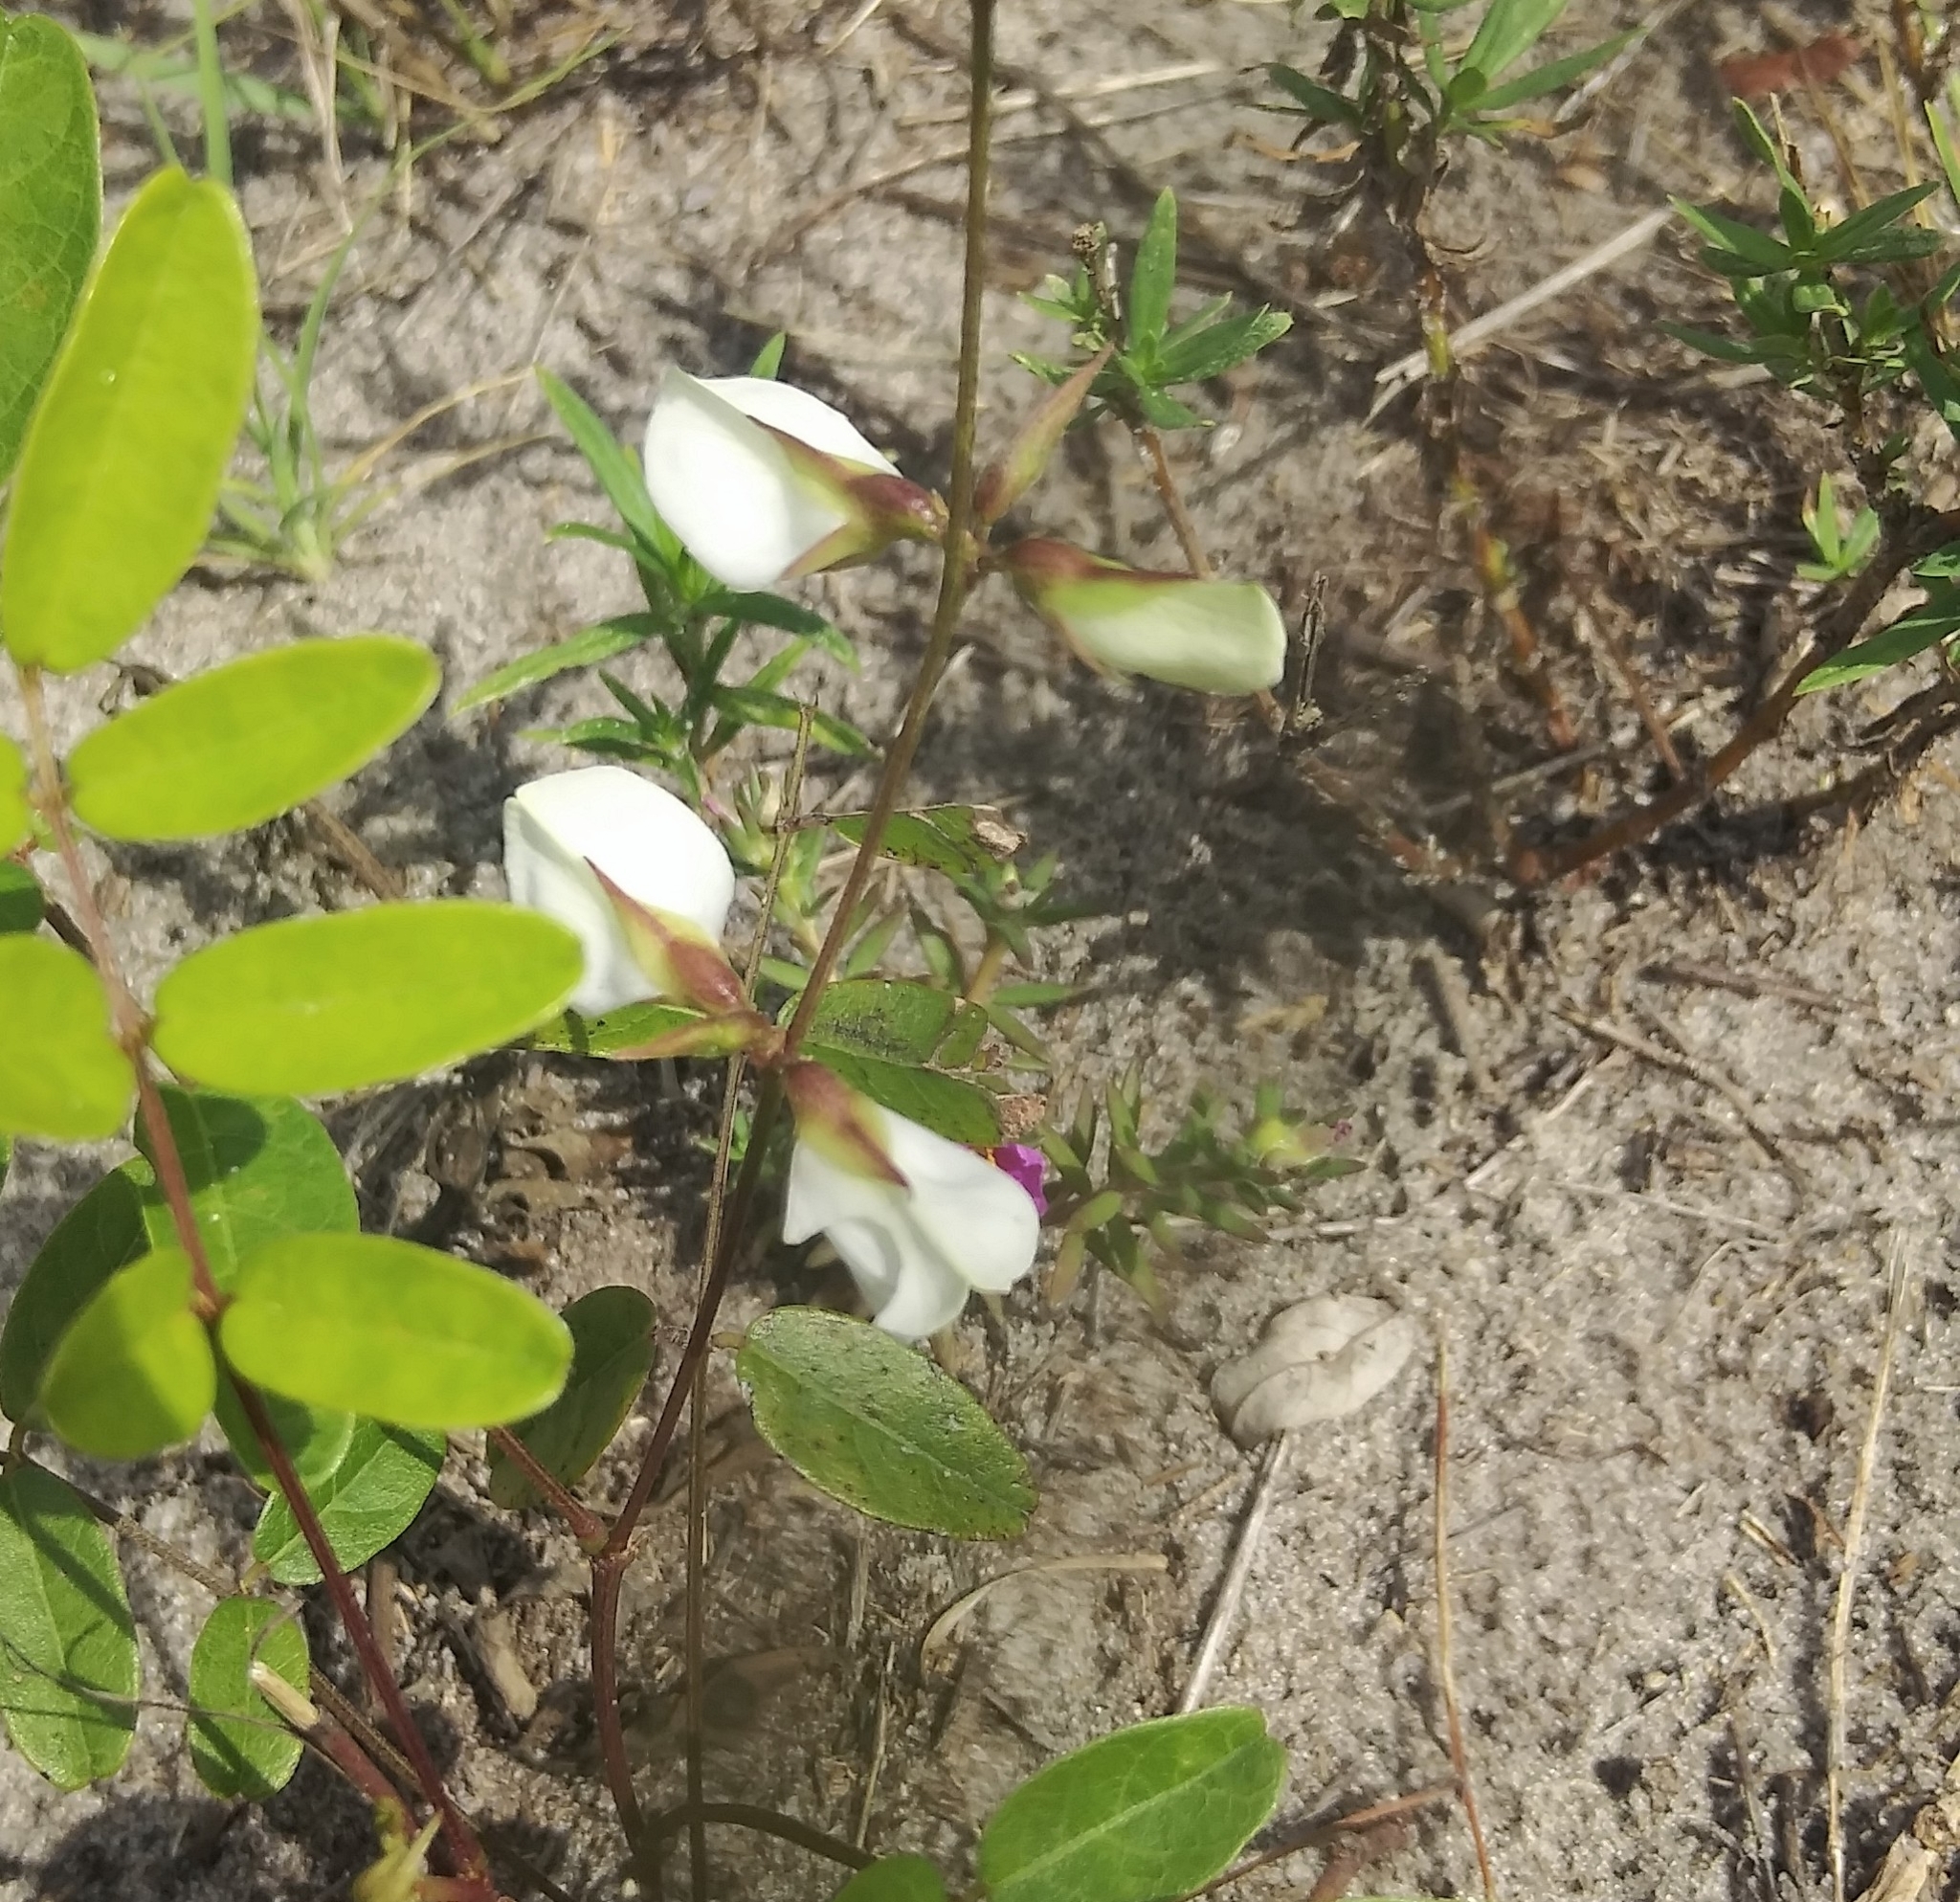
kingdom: Plantae
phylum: Tracheophyta
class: Magnoliopsida
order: Fabales
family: Fabaceae
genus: Galactia
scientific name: Galactia elliottii
